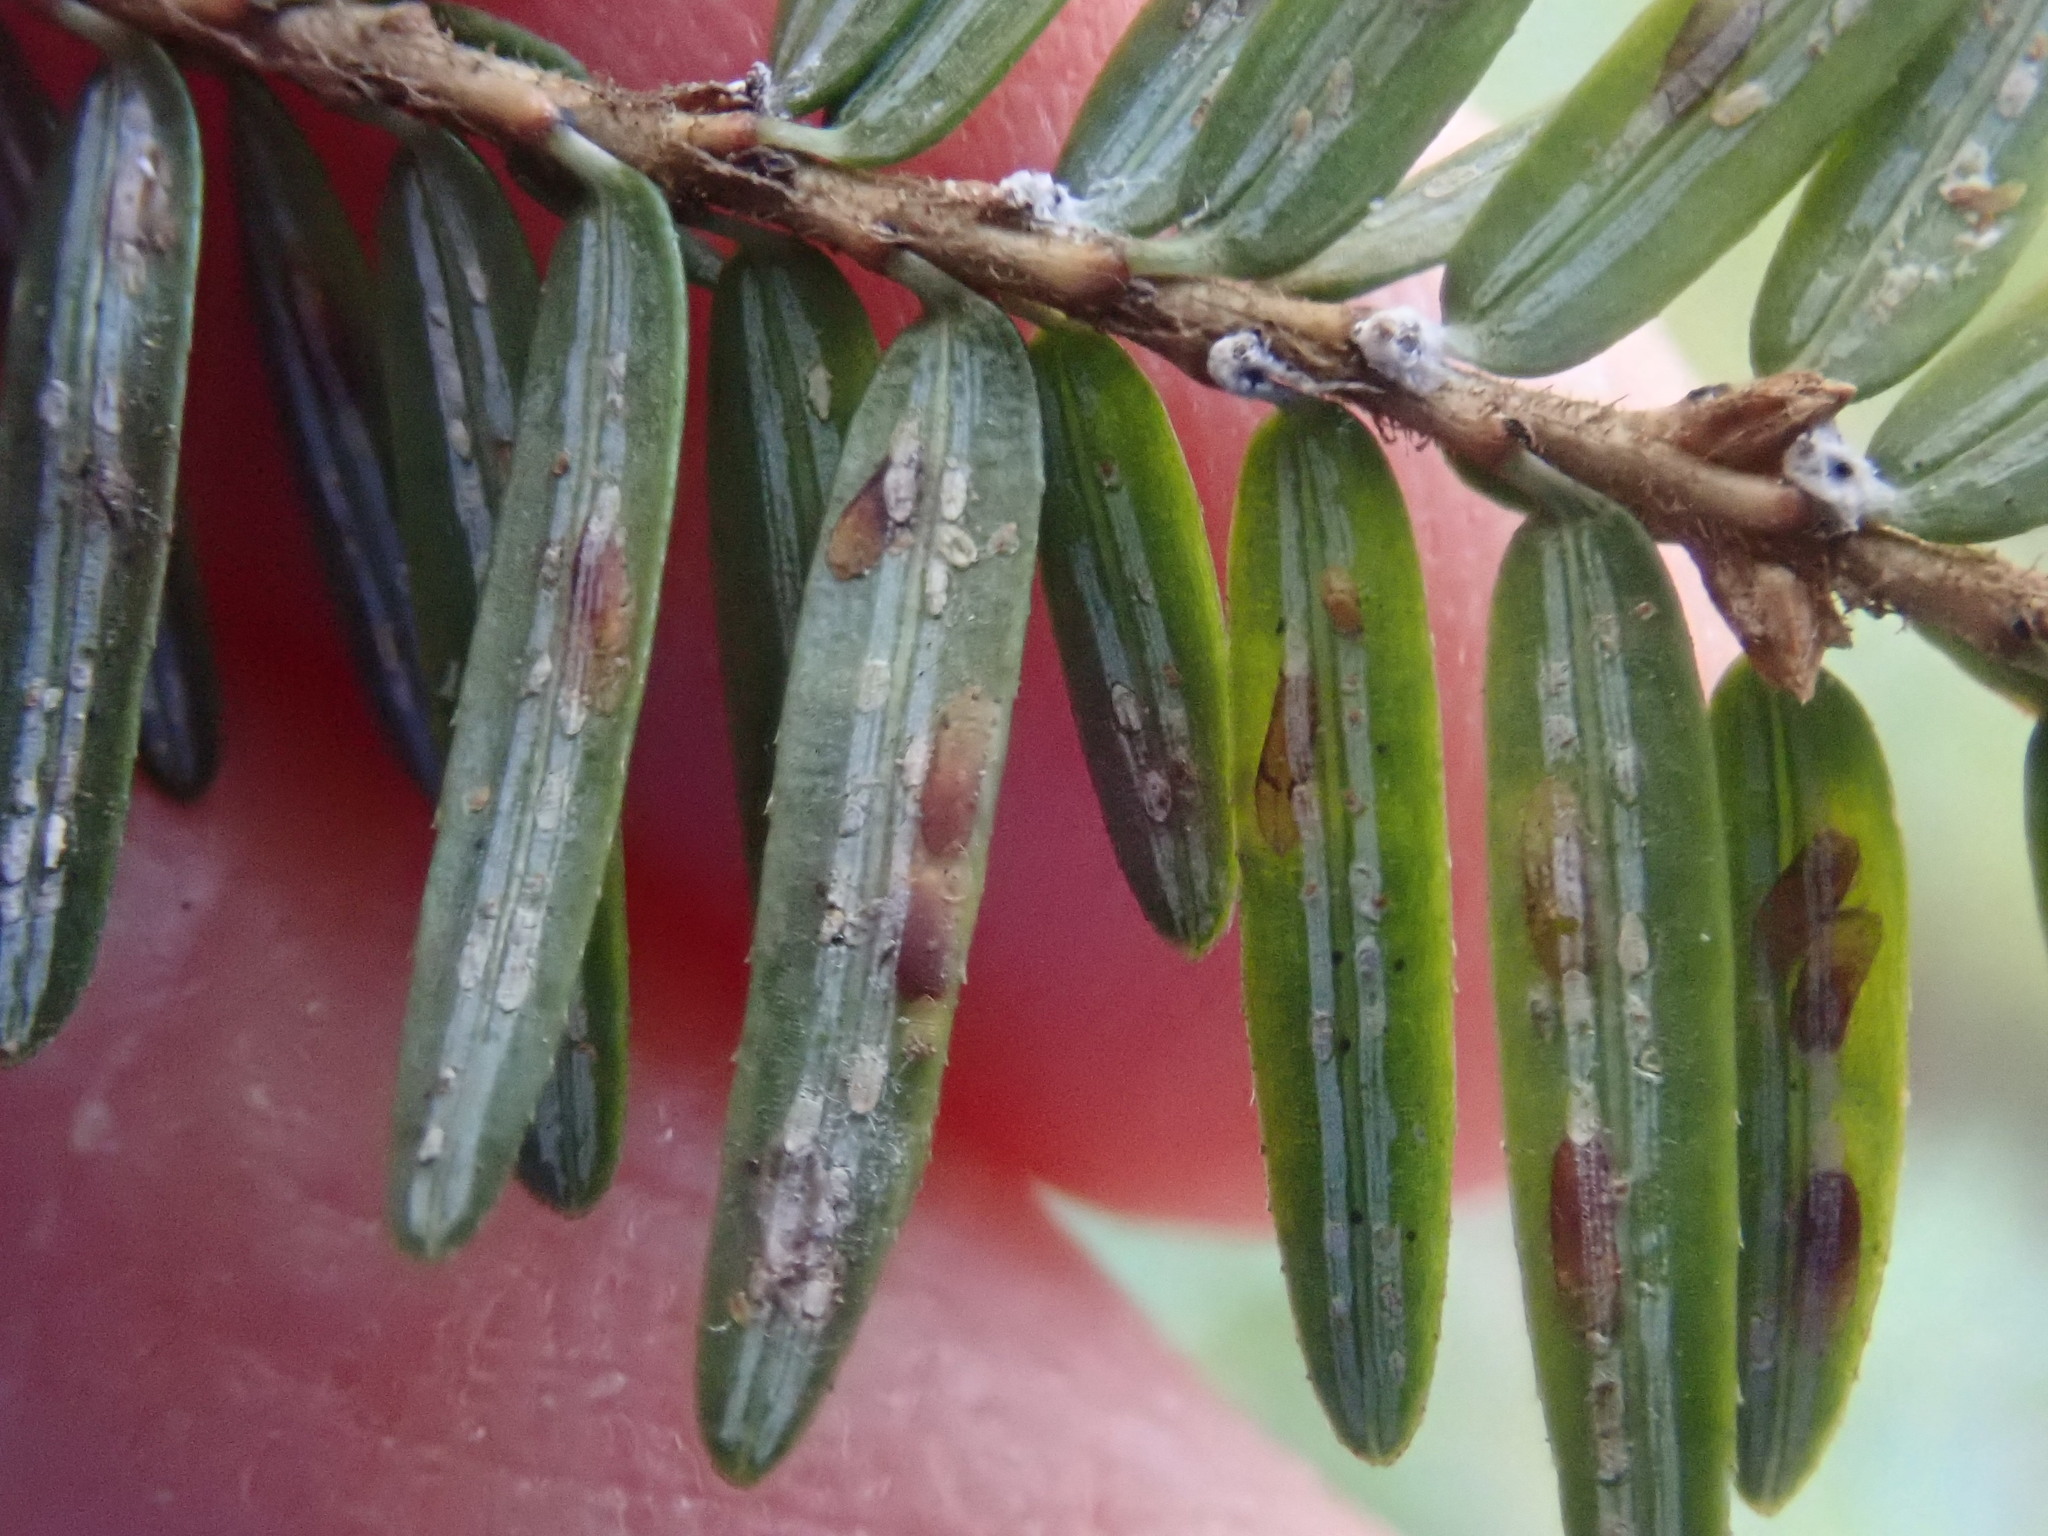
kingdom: Animalia
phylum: Arthropoda
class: Insecta
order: Hemiptera
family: Diaspididae
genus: Fiorinia
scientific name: Fiorinia externa
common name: Elongate hemlock scale
